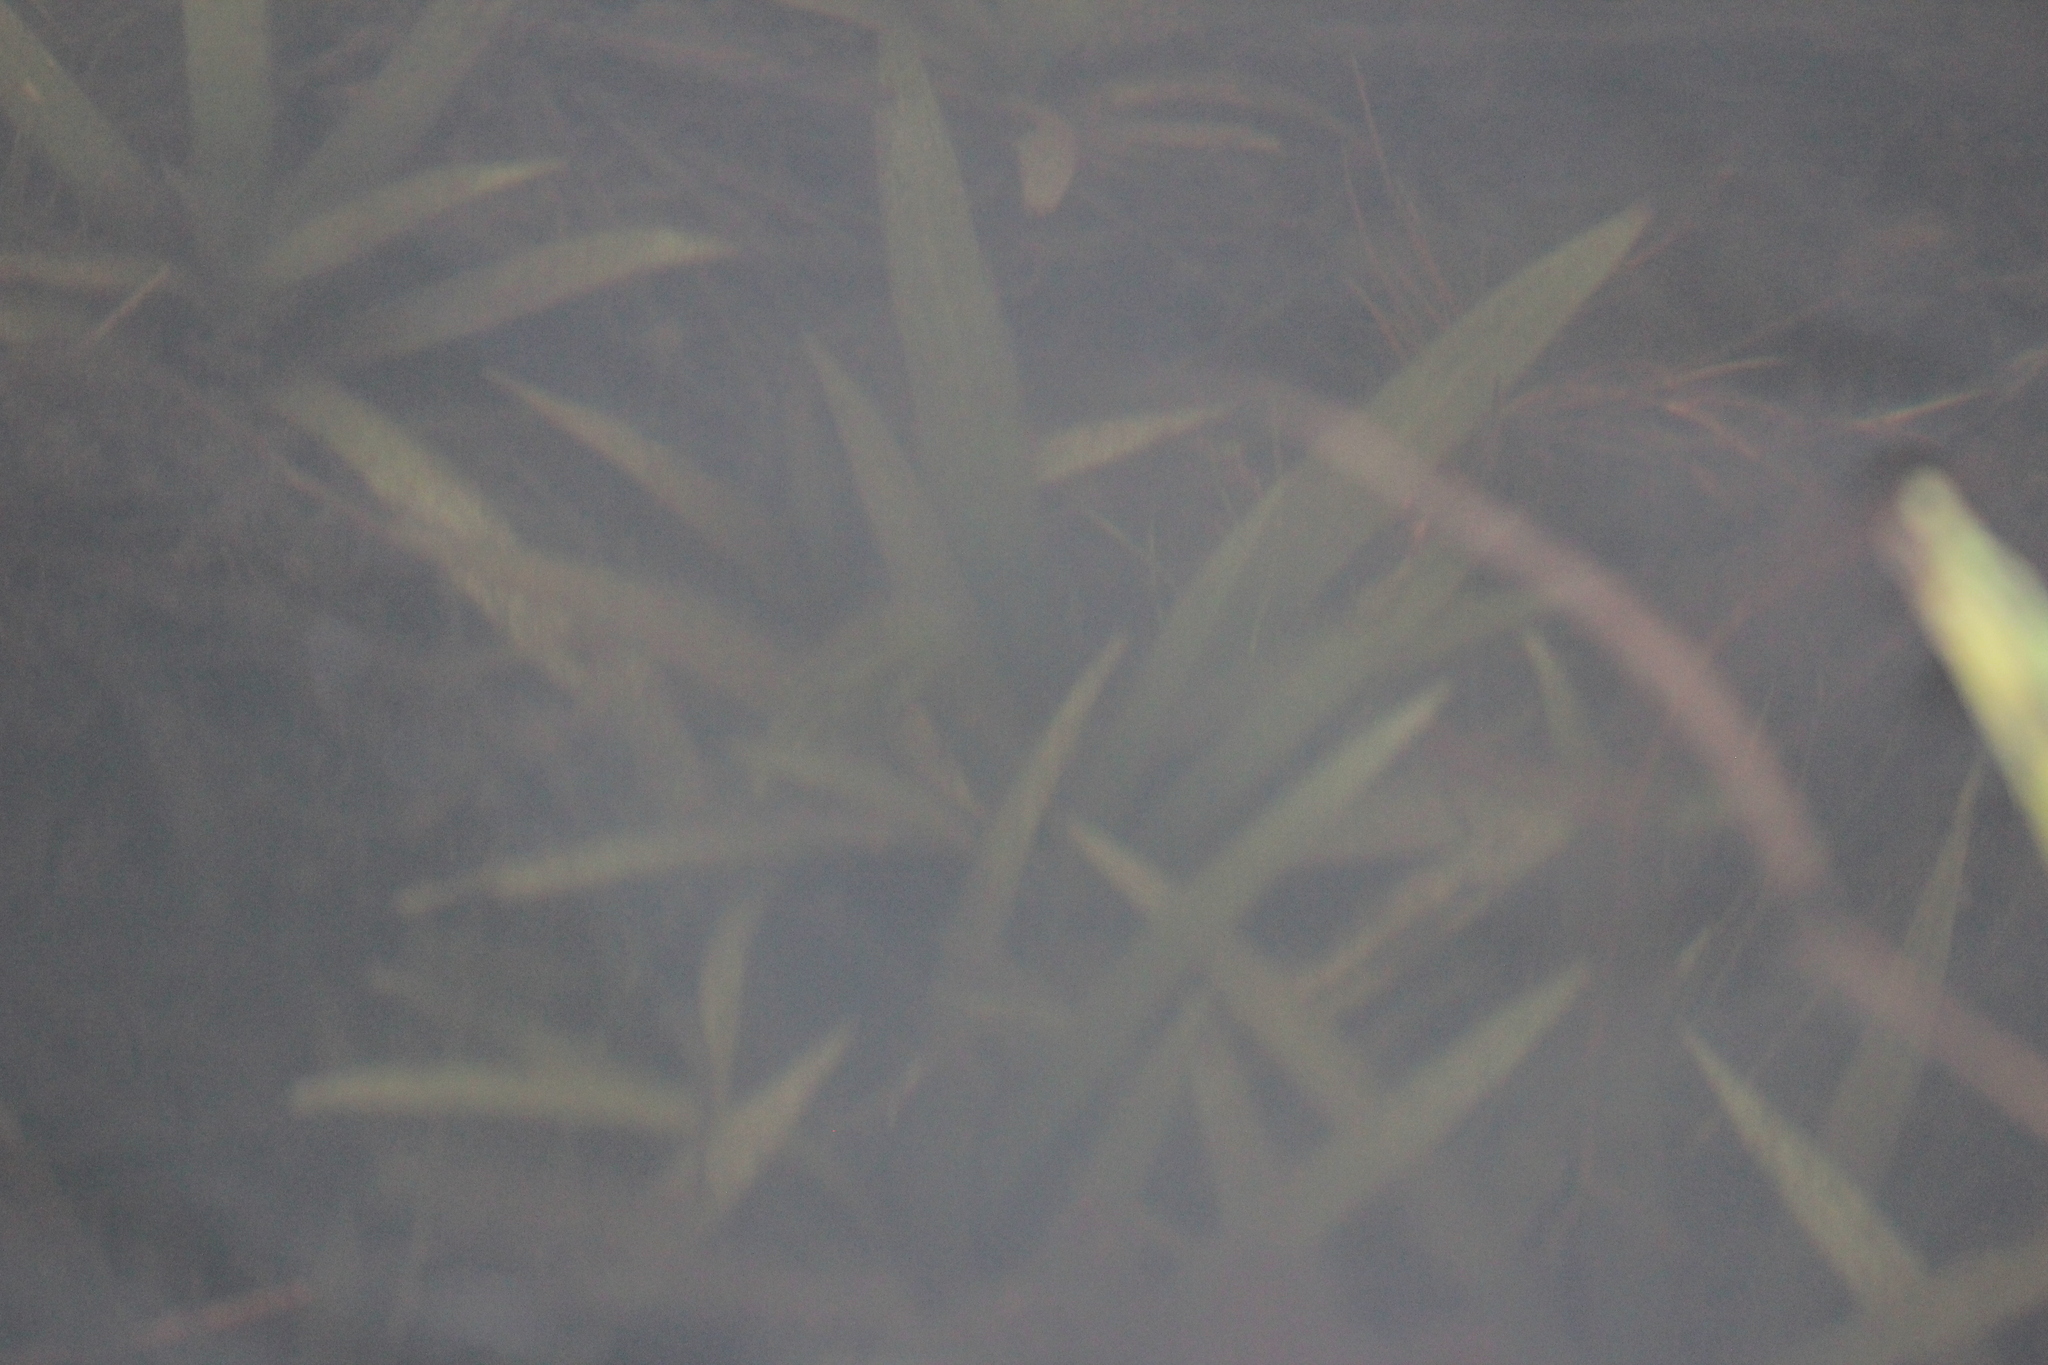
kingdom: Plantae
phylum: Tracheophyta
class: Liliopsida
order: Alismatales
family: Alismataceae
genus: Sagittaria
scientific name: Sagittaria cuneata
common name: Northern arrowhead
